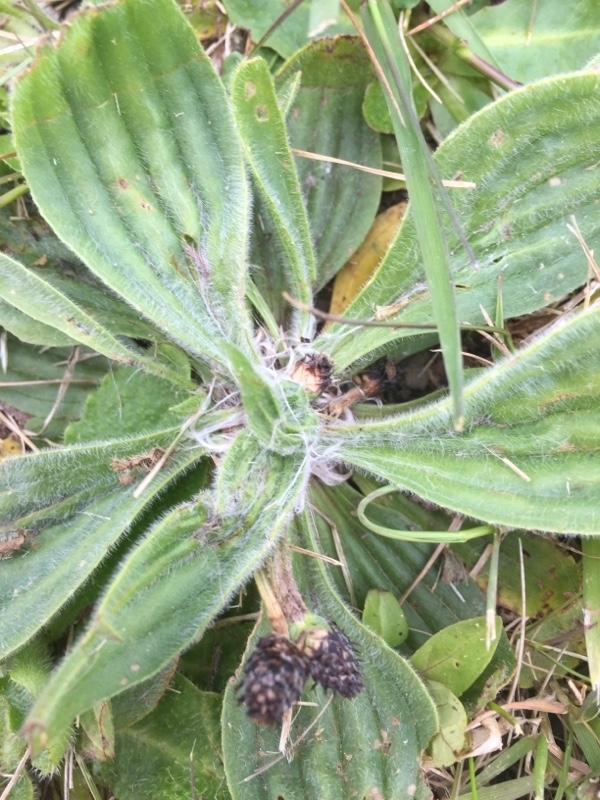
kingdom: Plantae
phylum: Tracheophyta
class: Magnoliopsida
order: Lamiales
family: Plantaginaceae
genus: Plantago
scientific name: Plantago media
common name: Hoary plantain
